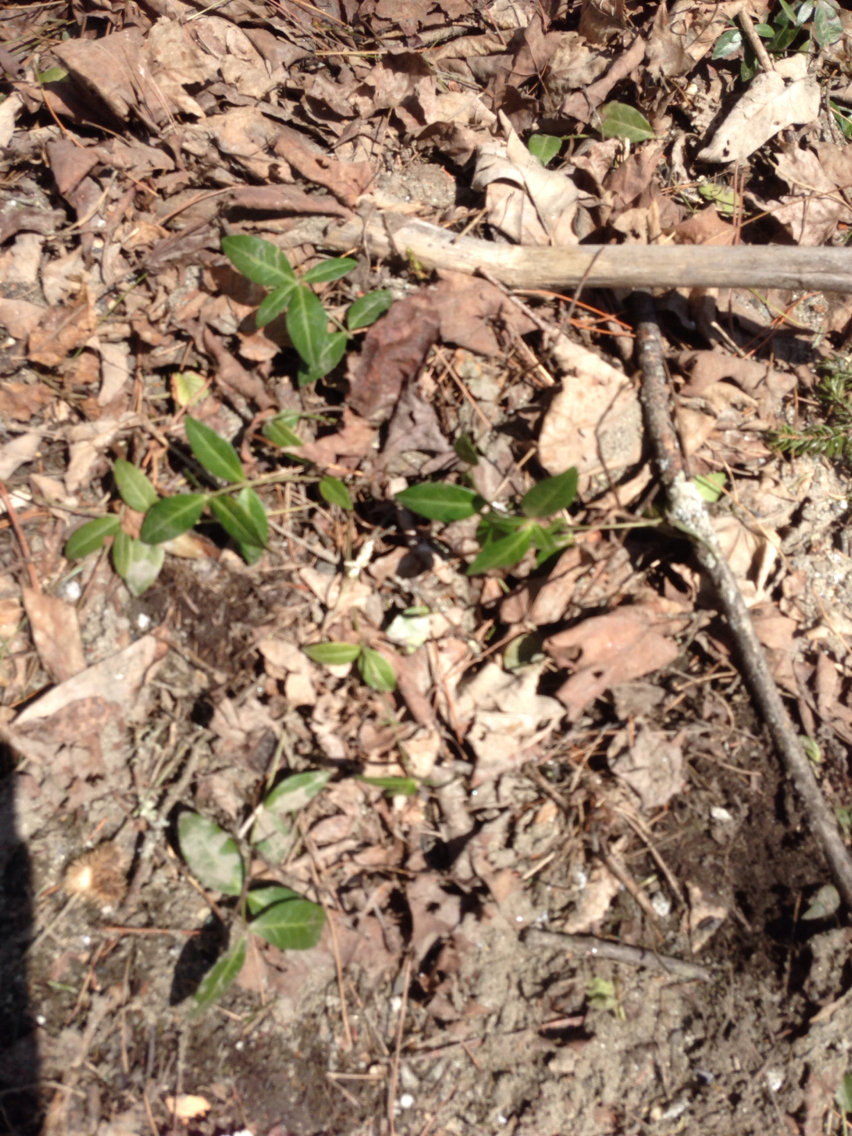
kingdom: Plantae
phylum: Tracheophyta
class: Magnoliopsida
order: Gentianales
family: Apocynaceae
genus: Vinca
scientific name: Vinca minor
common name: Lesser periwinkle
